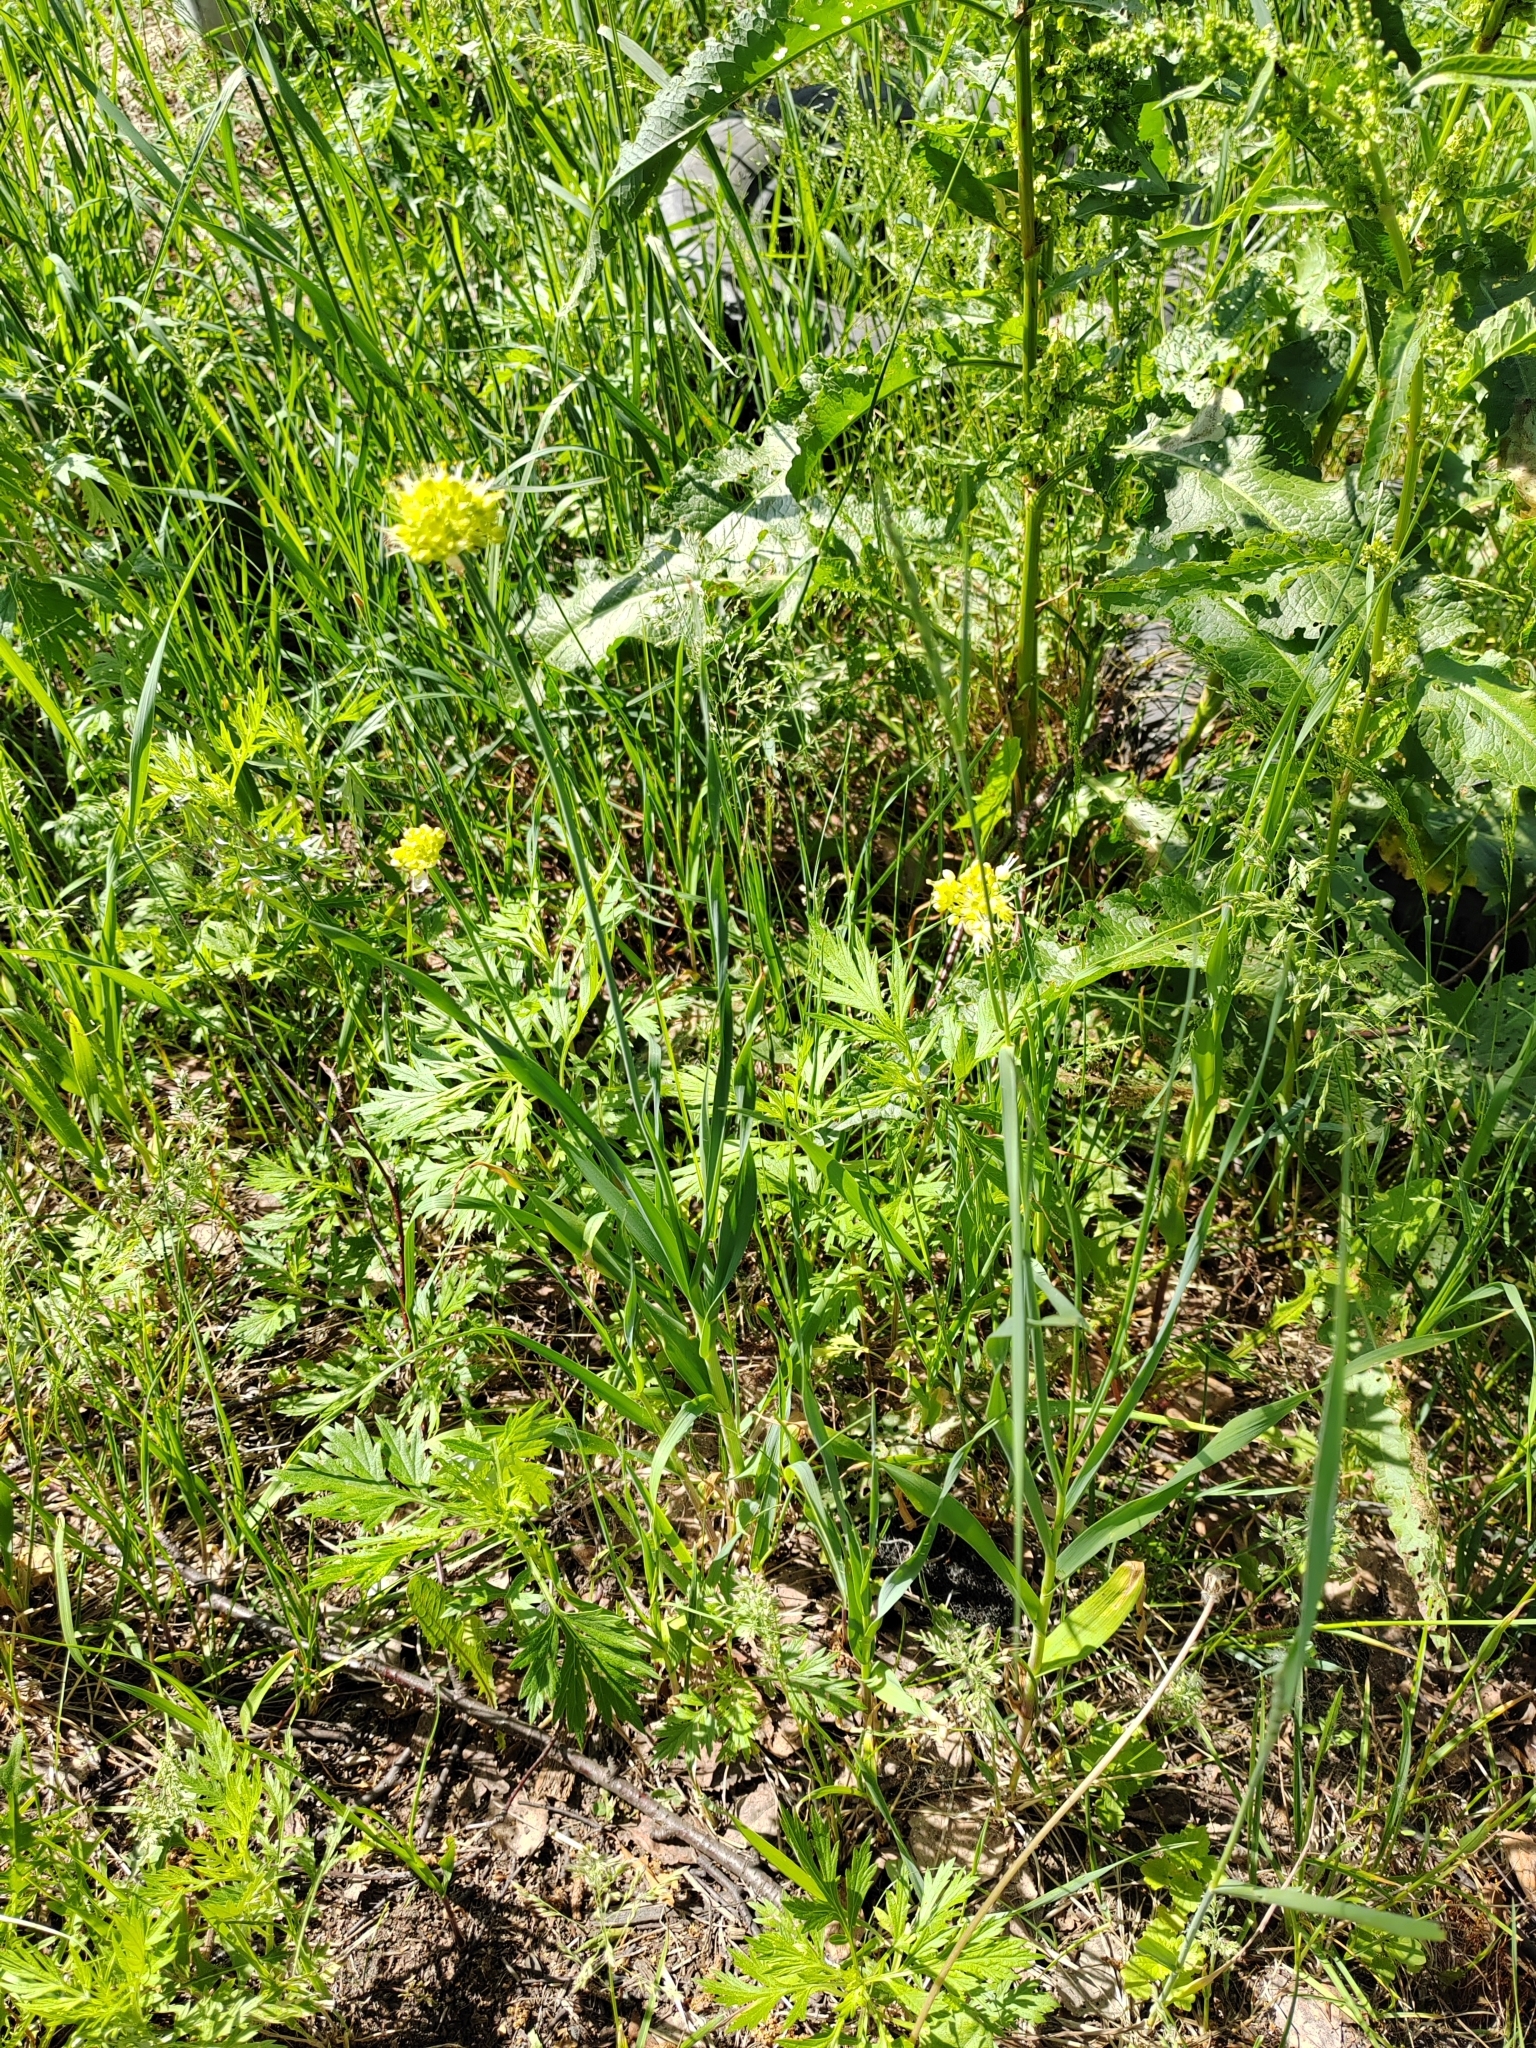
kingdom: Plantae
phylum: Tracheophyta
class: Liliopsida
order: Asparagales
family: Amaryllidaceae
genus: Allium
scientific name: Allium obliquum
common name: Oblique onion
